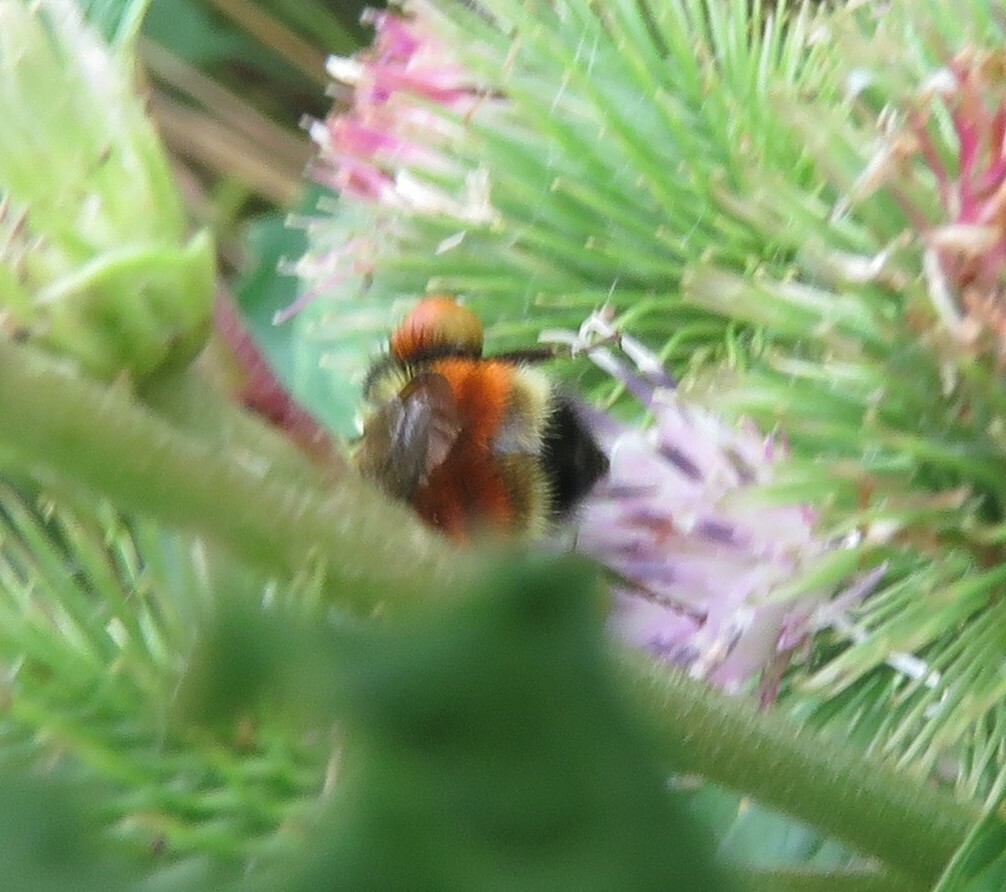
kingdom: Animalia
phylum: Arthropoda
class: Insecta
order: Hymenoptera
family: Apidae
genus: Bombus
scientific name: Bombus ternarius
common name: Tri-colored bumble bee
